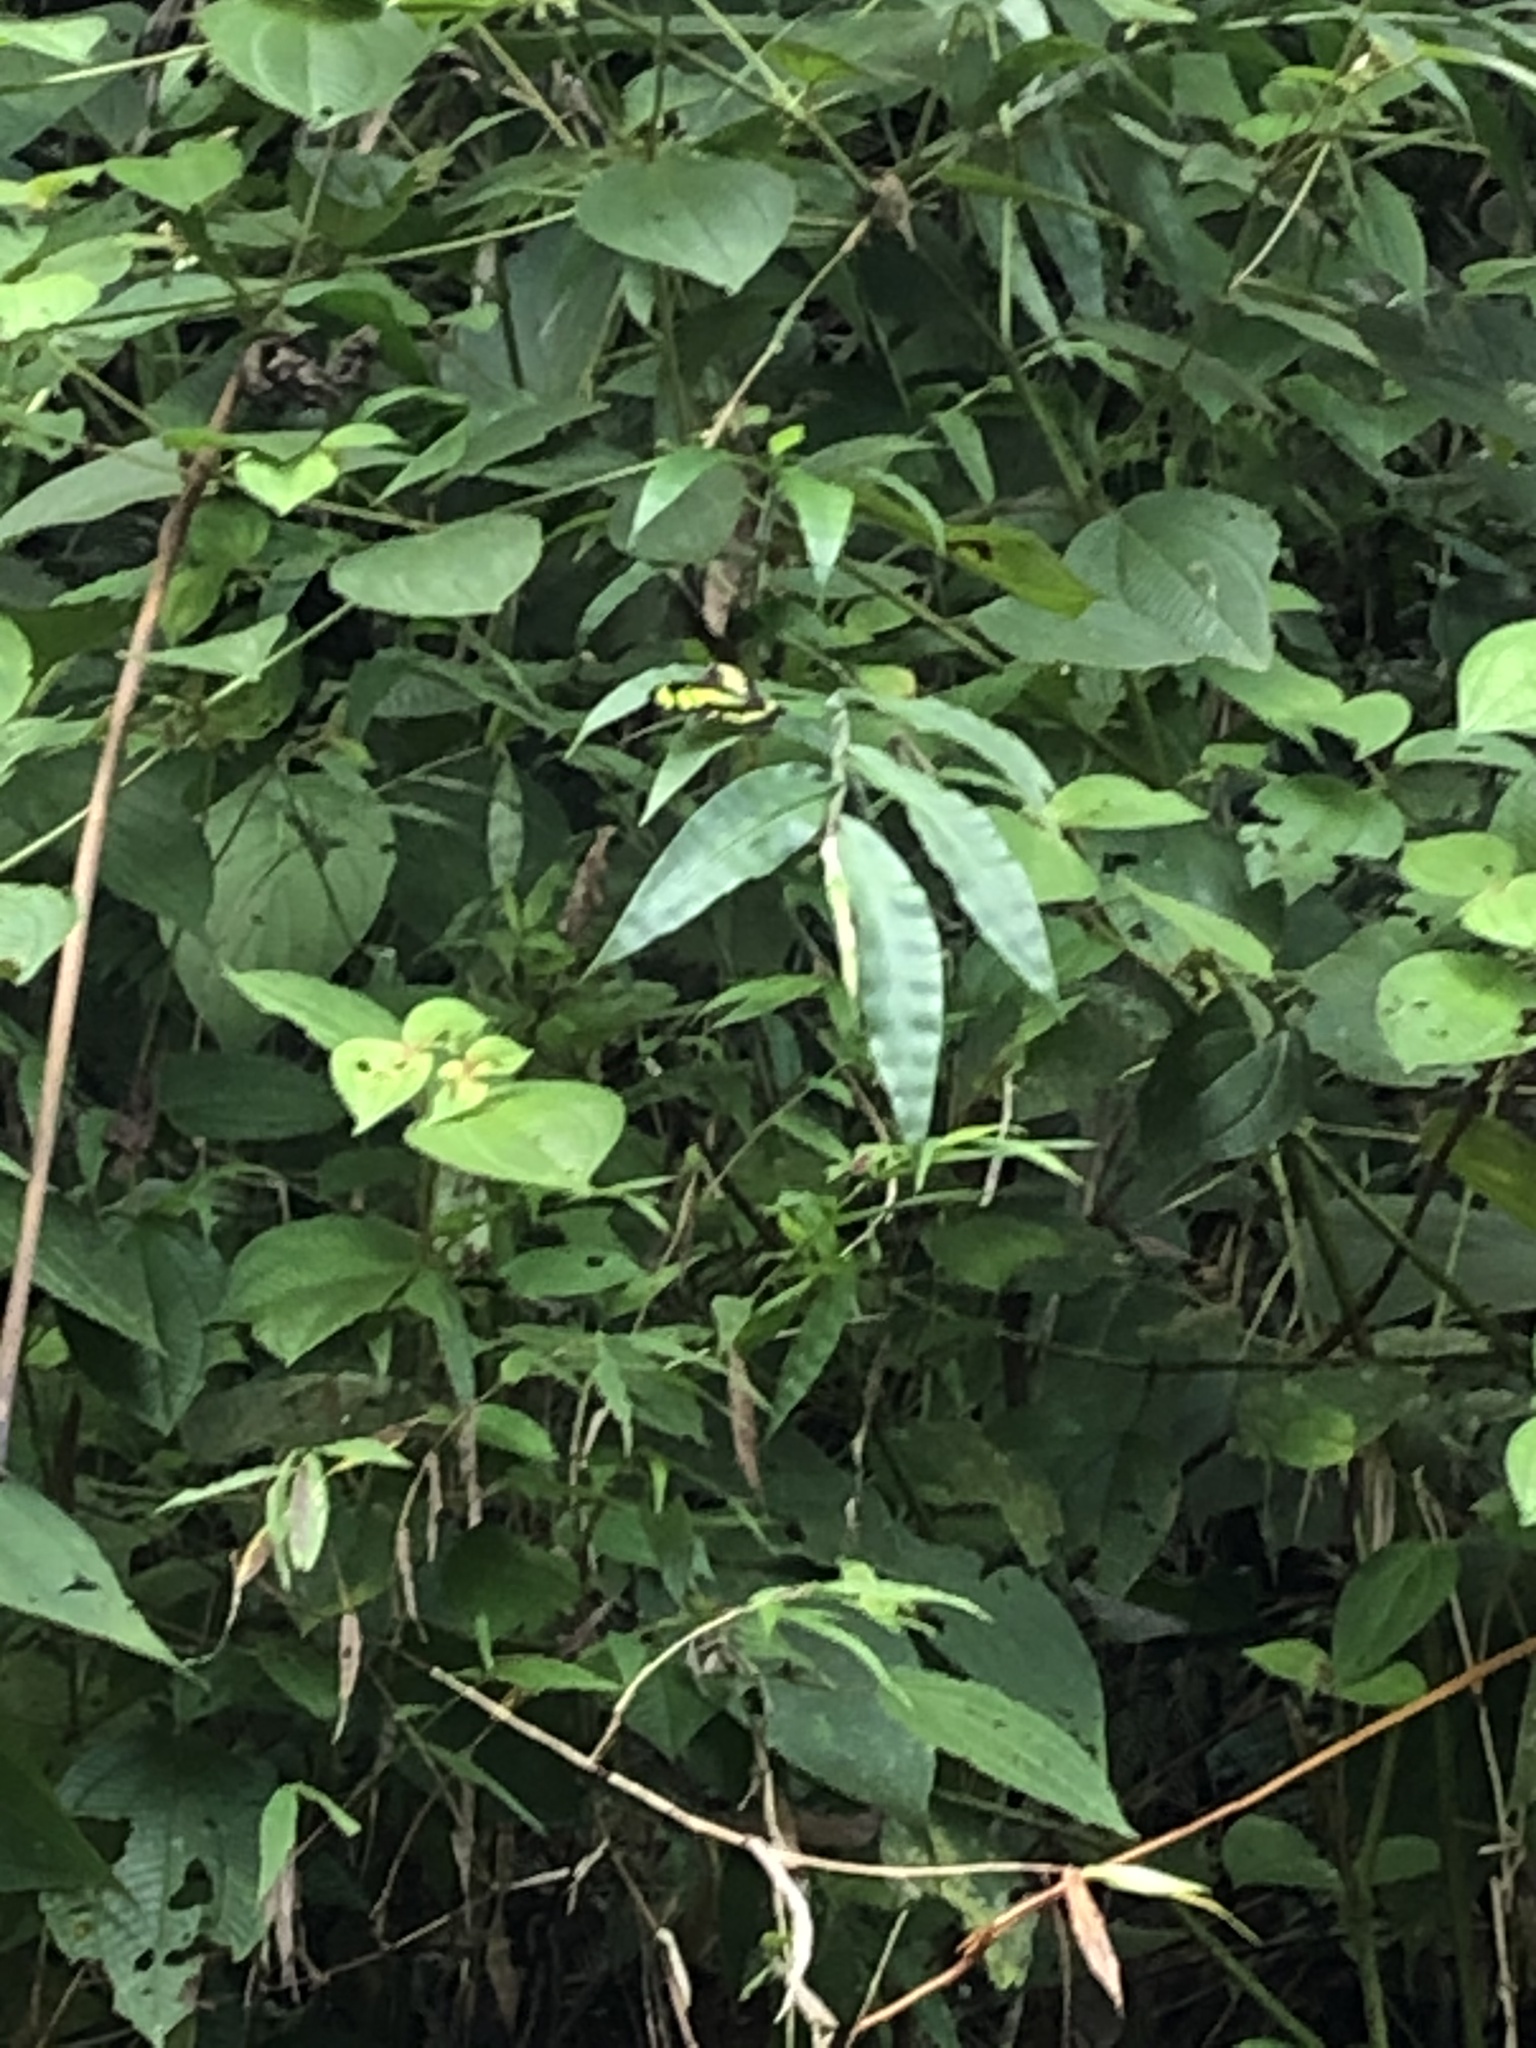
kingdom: Animalia
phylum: Arthropoda
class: Insecta
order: Lepidoptera
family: Nymphalidae
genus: Siproeta
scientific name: Siproeta stelenes
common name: Malachite
